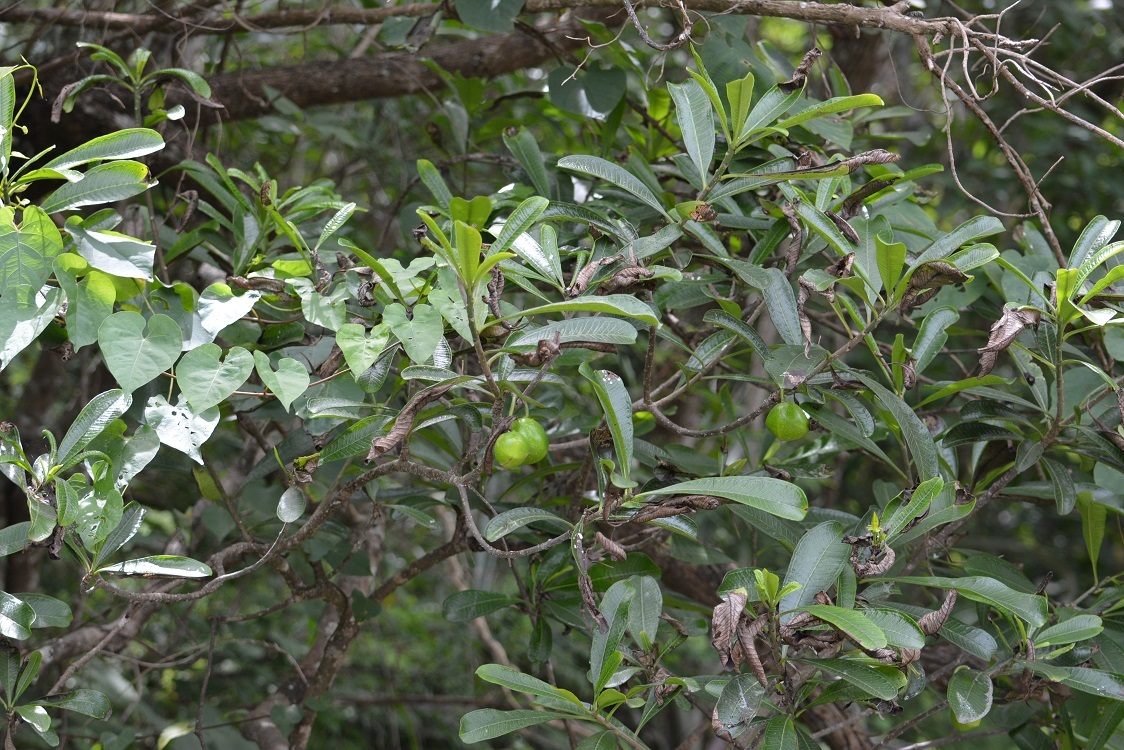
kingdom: Plantae
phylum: Tracheophyta
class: Magnoliopsida
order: Gentianales
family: Apocynaceae
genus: Cascabela
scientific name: Cascabela ovata
